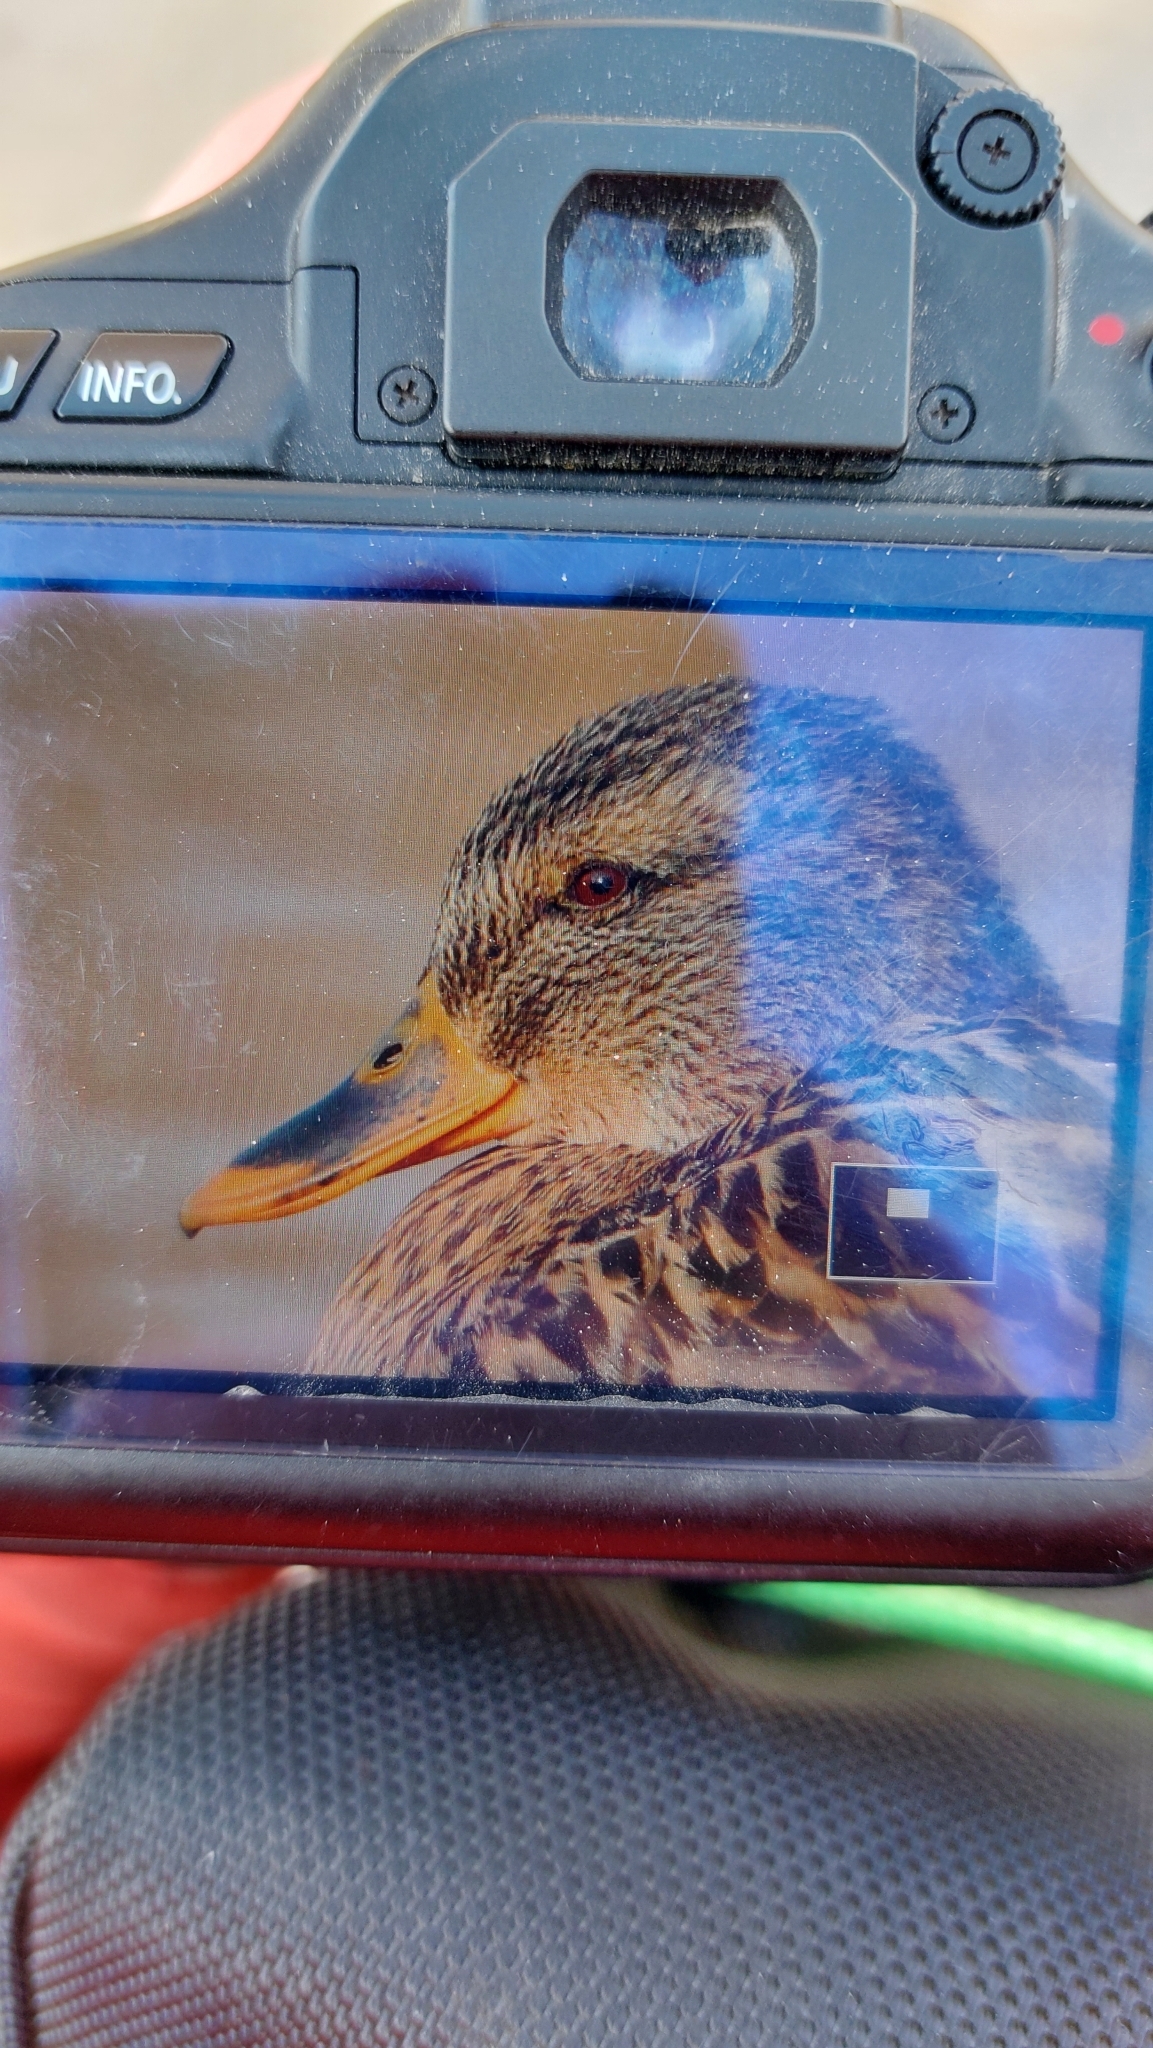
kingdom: Animalia
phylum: Chordata
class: Aves
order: Anseriformes
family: Anatidae
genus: Anas
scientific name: Anas platyrhynchos
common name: Mallard
